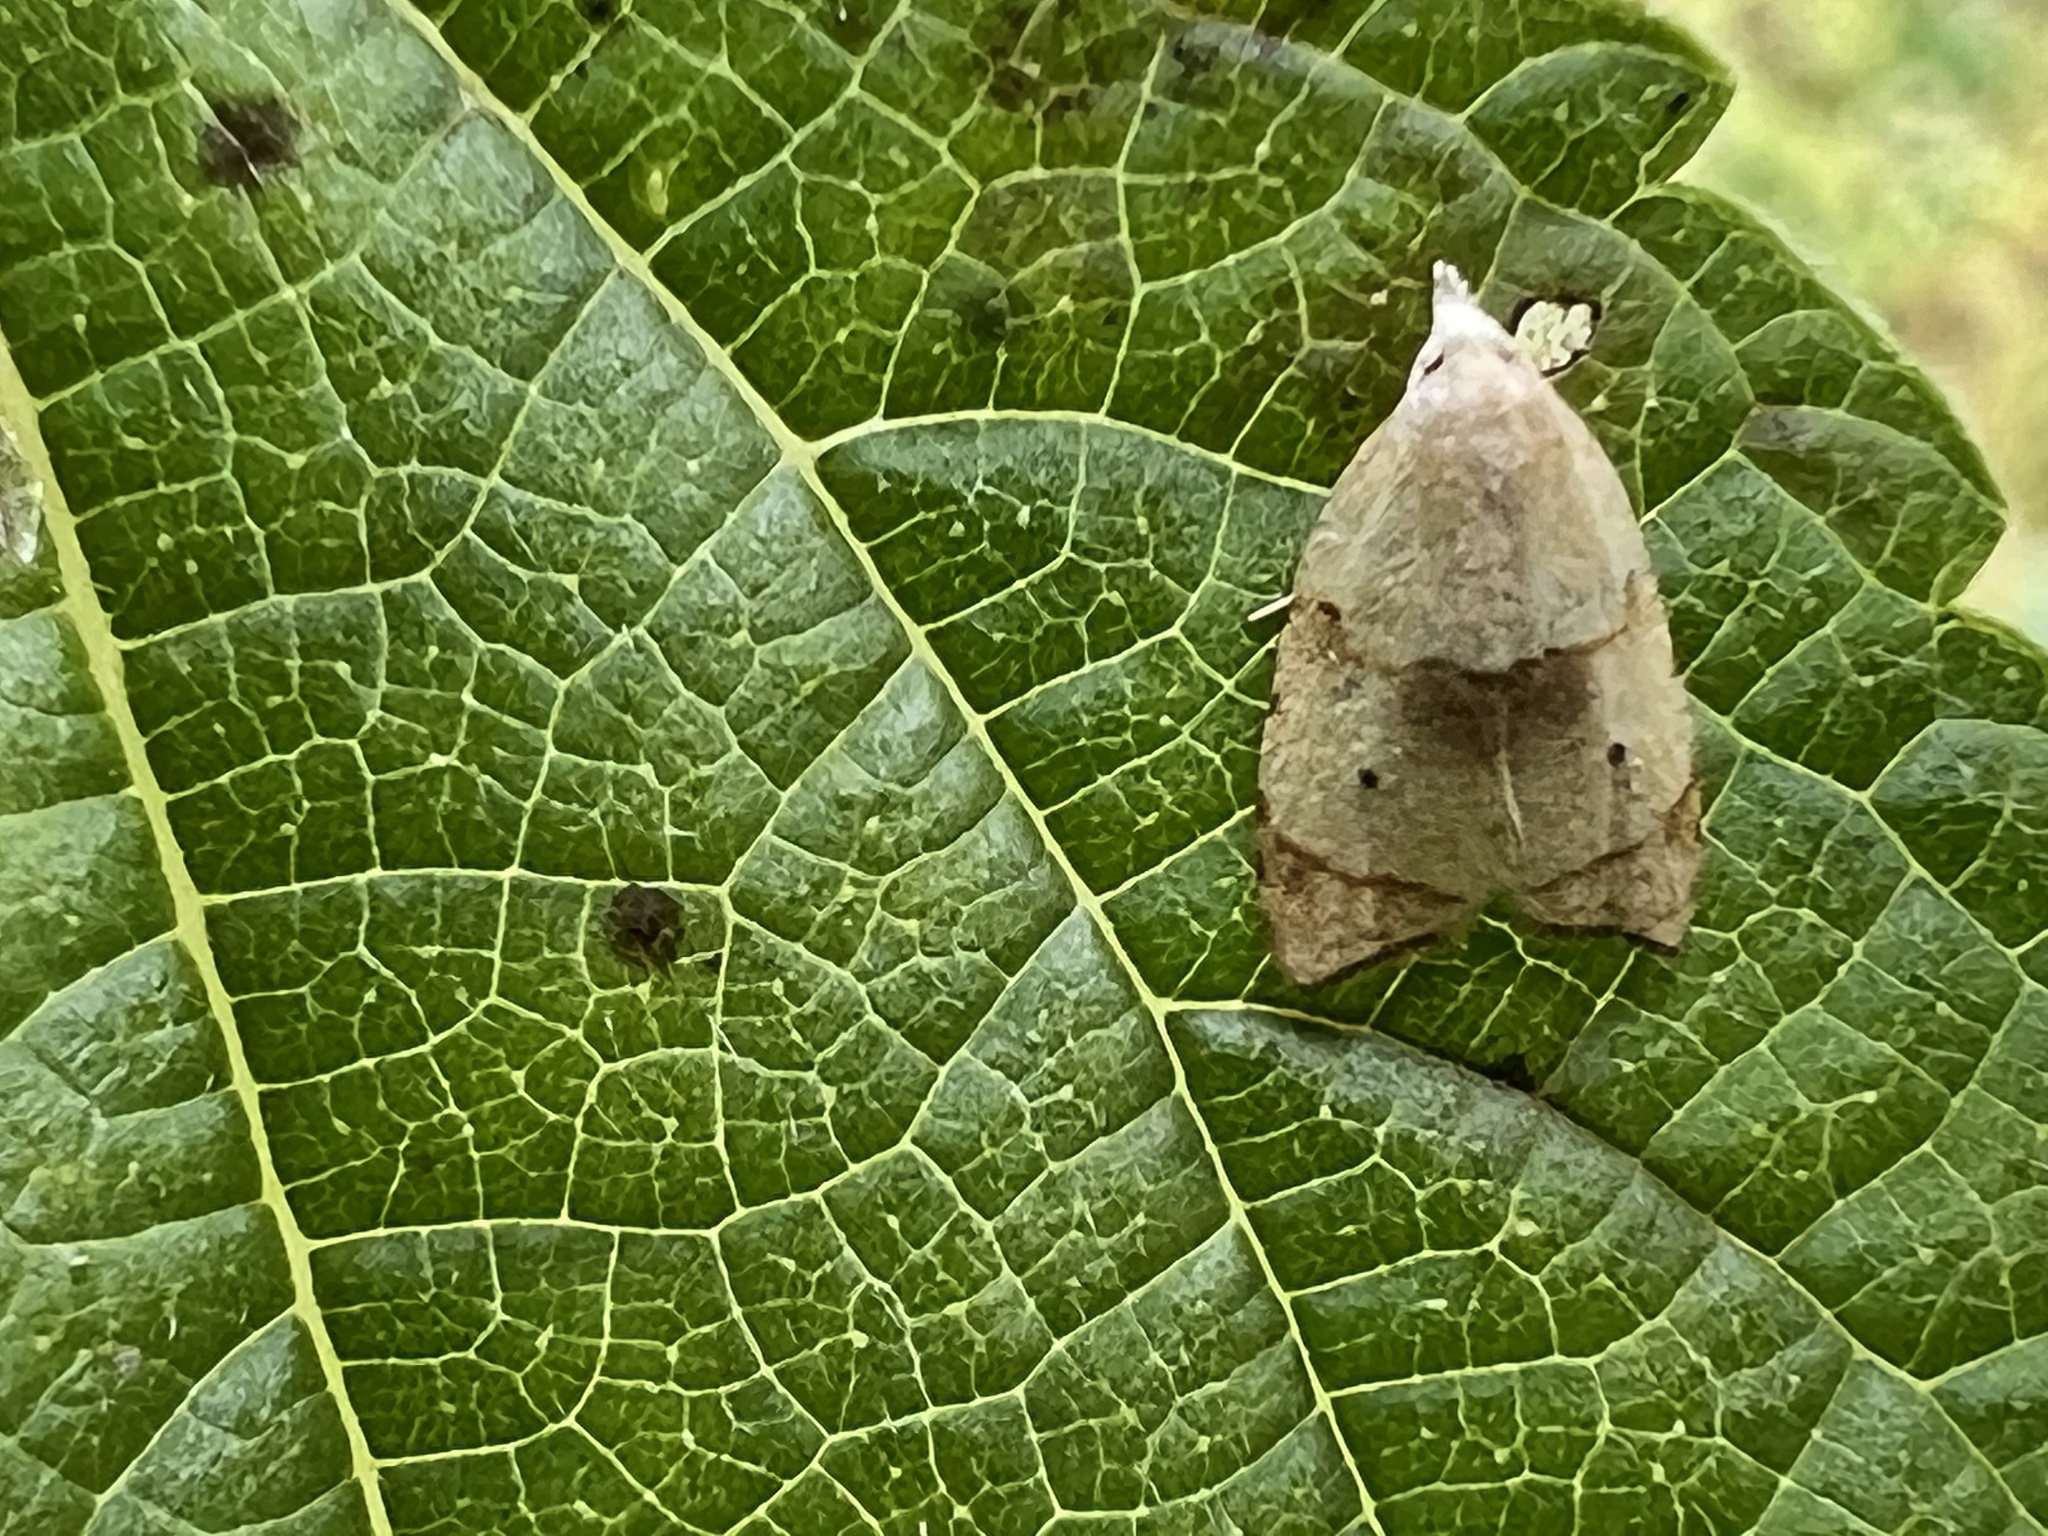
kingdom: Animalia
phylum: Arthropoda
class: Insecta
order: Lepidoptera
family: Tortricidae
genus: Coelostathma
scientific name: Coelostathma discopunctana
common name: Batman moth
